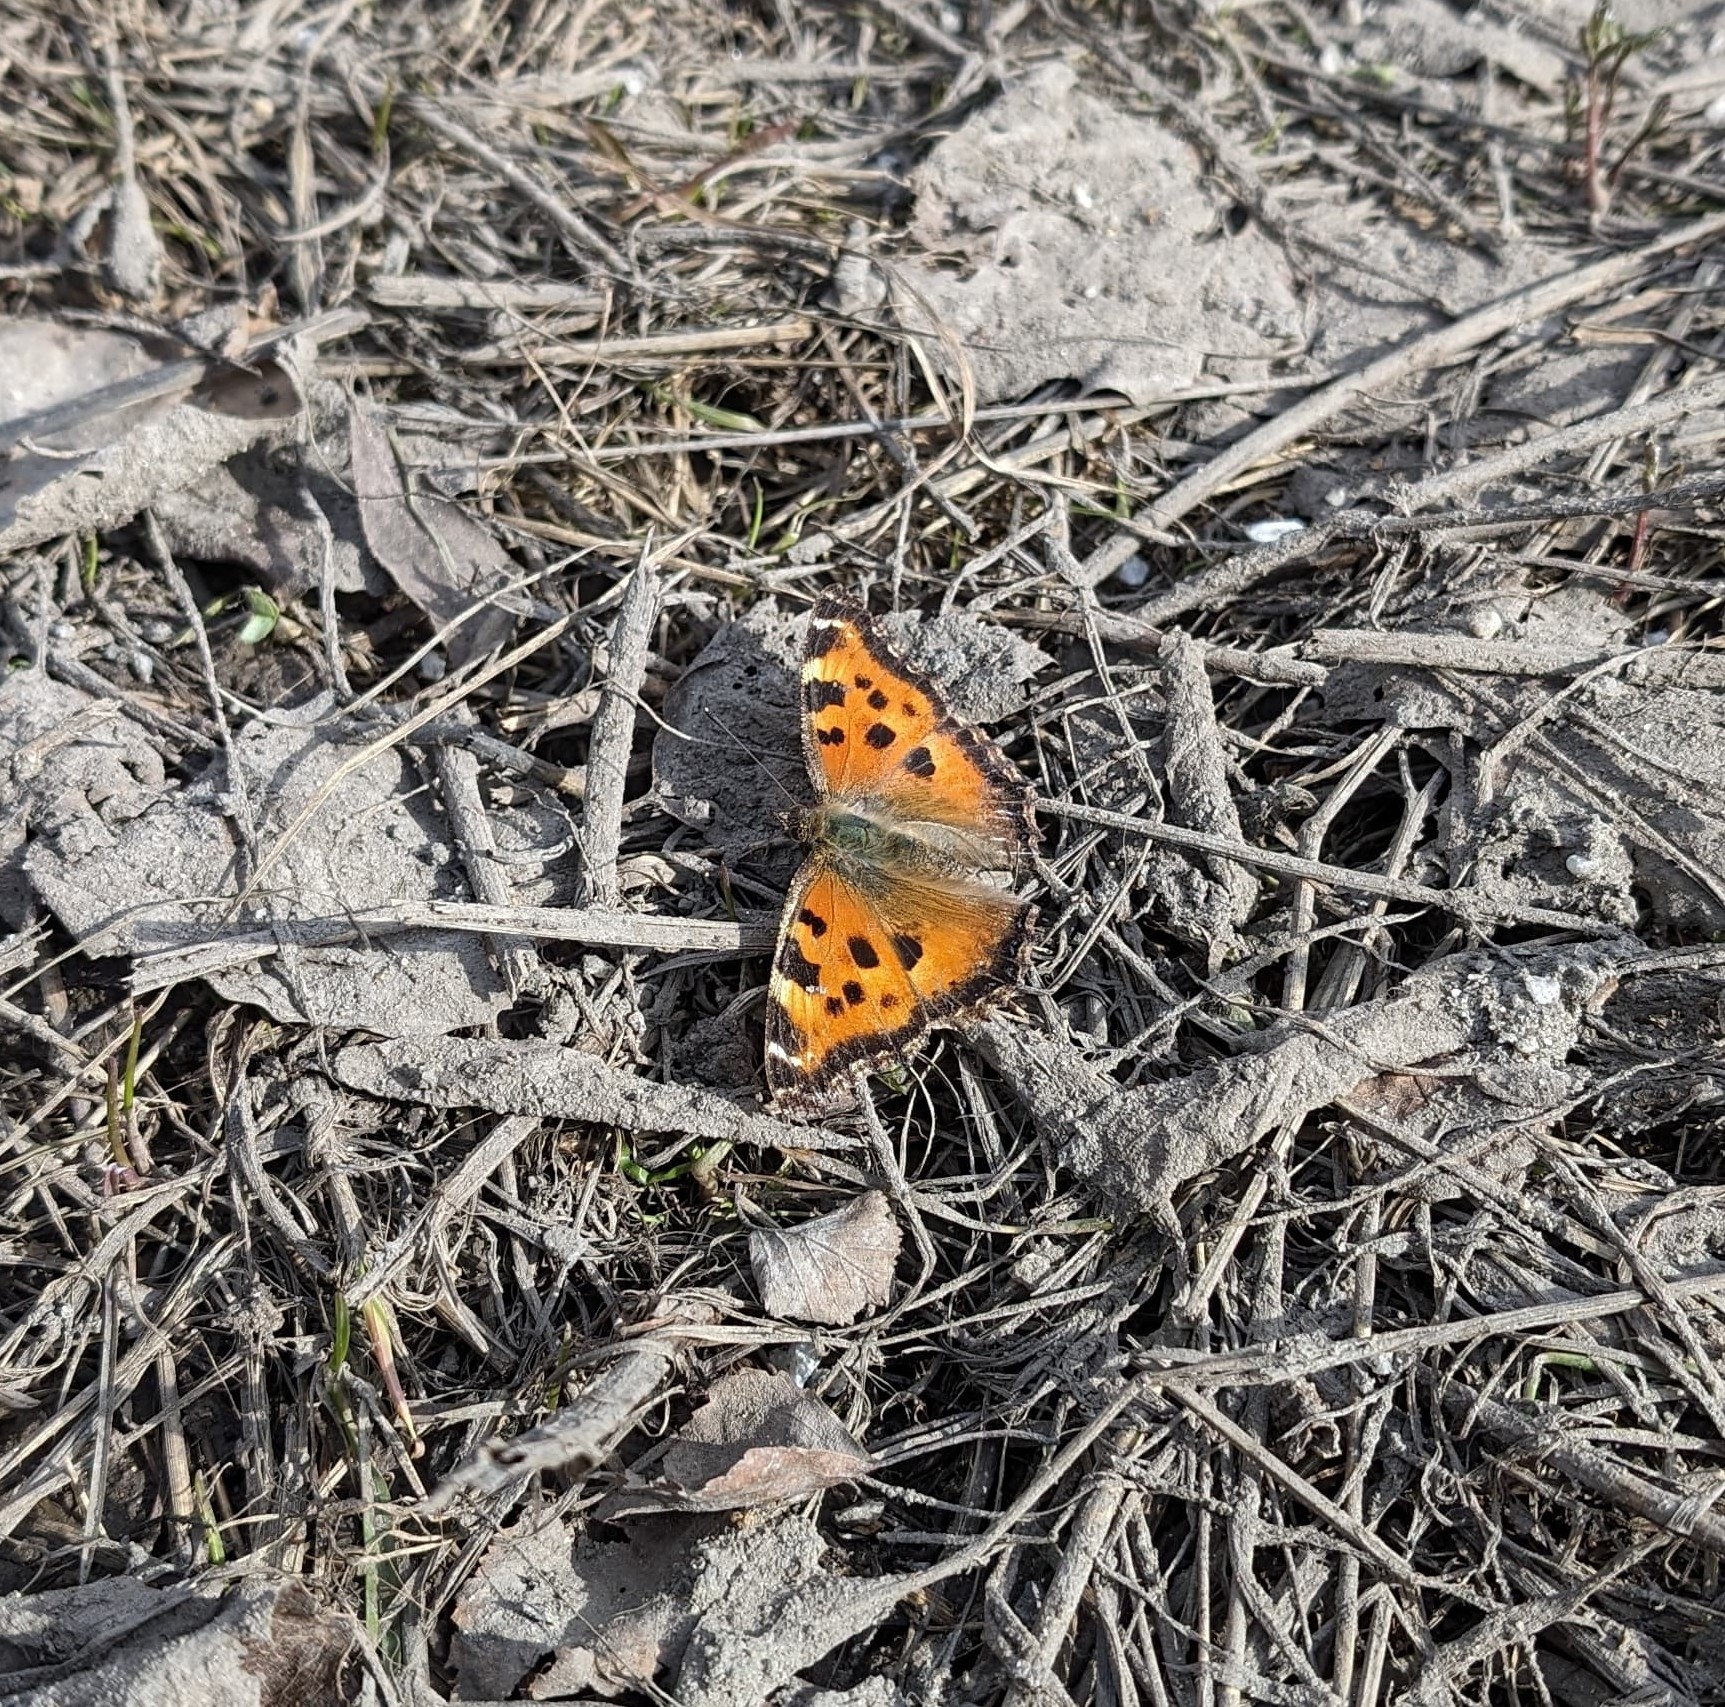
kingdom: Animalia
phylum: Arthropoda
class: Insecta
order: Lepidoptera
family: Nymphalidae
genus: Nymphalis
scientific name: Nymphalis xanthomelas
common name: Scarce tortoiseshell
